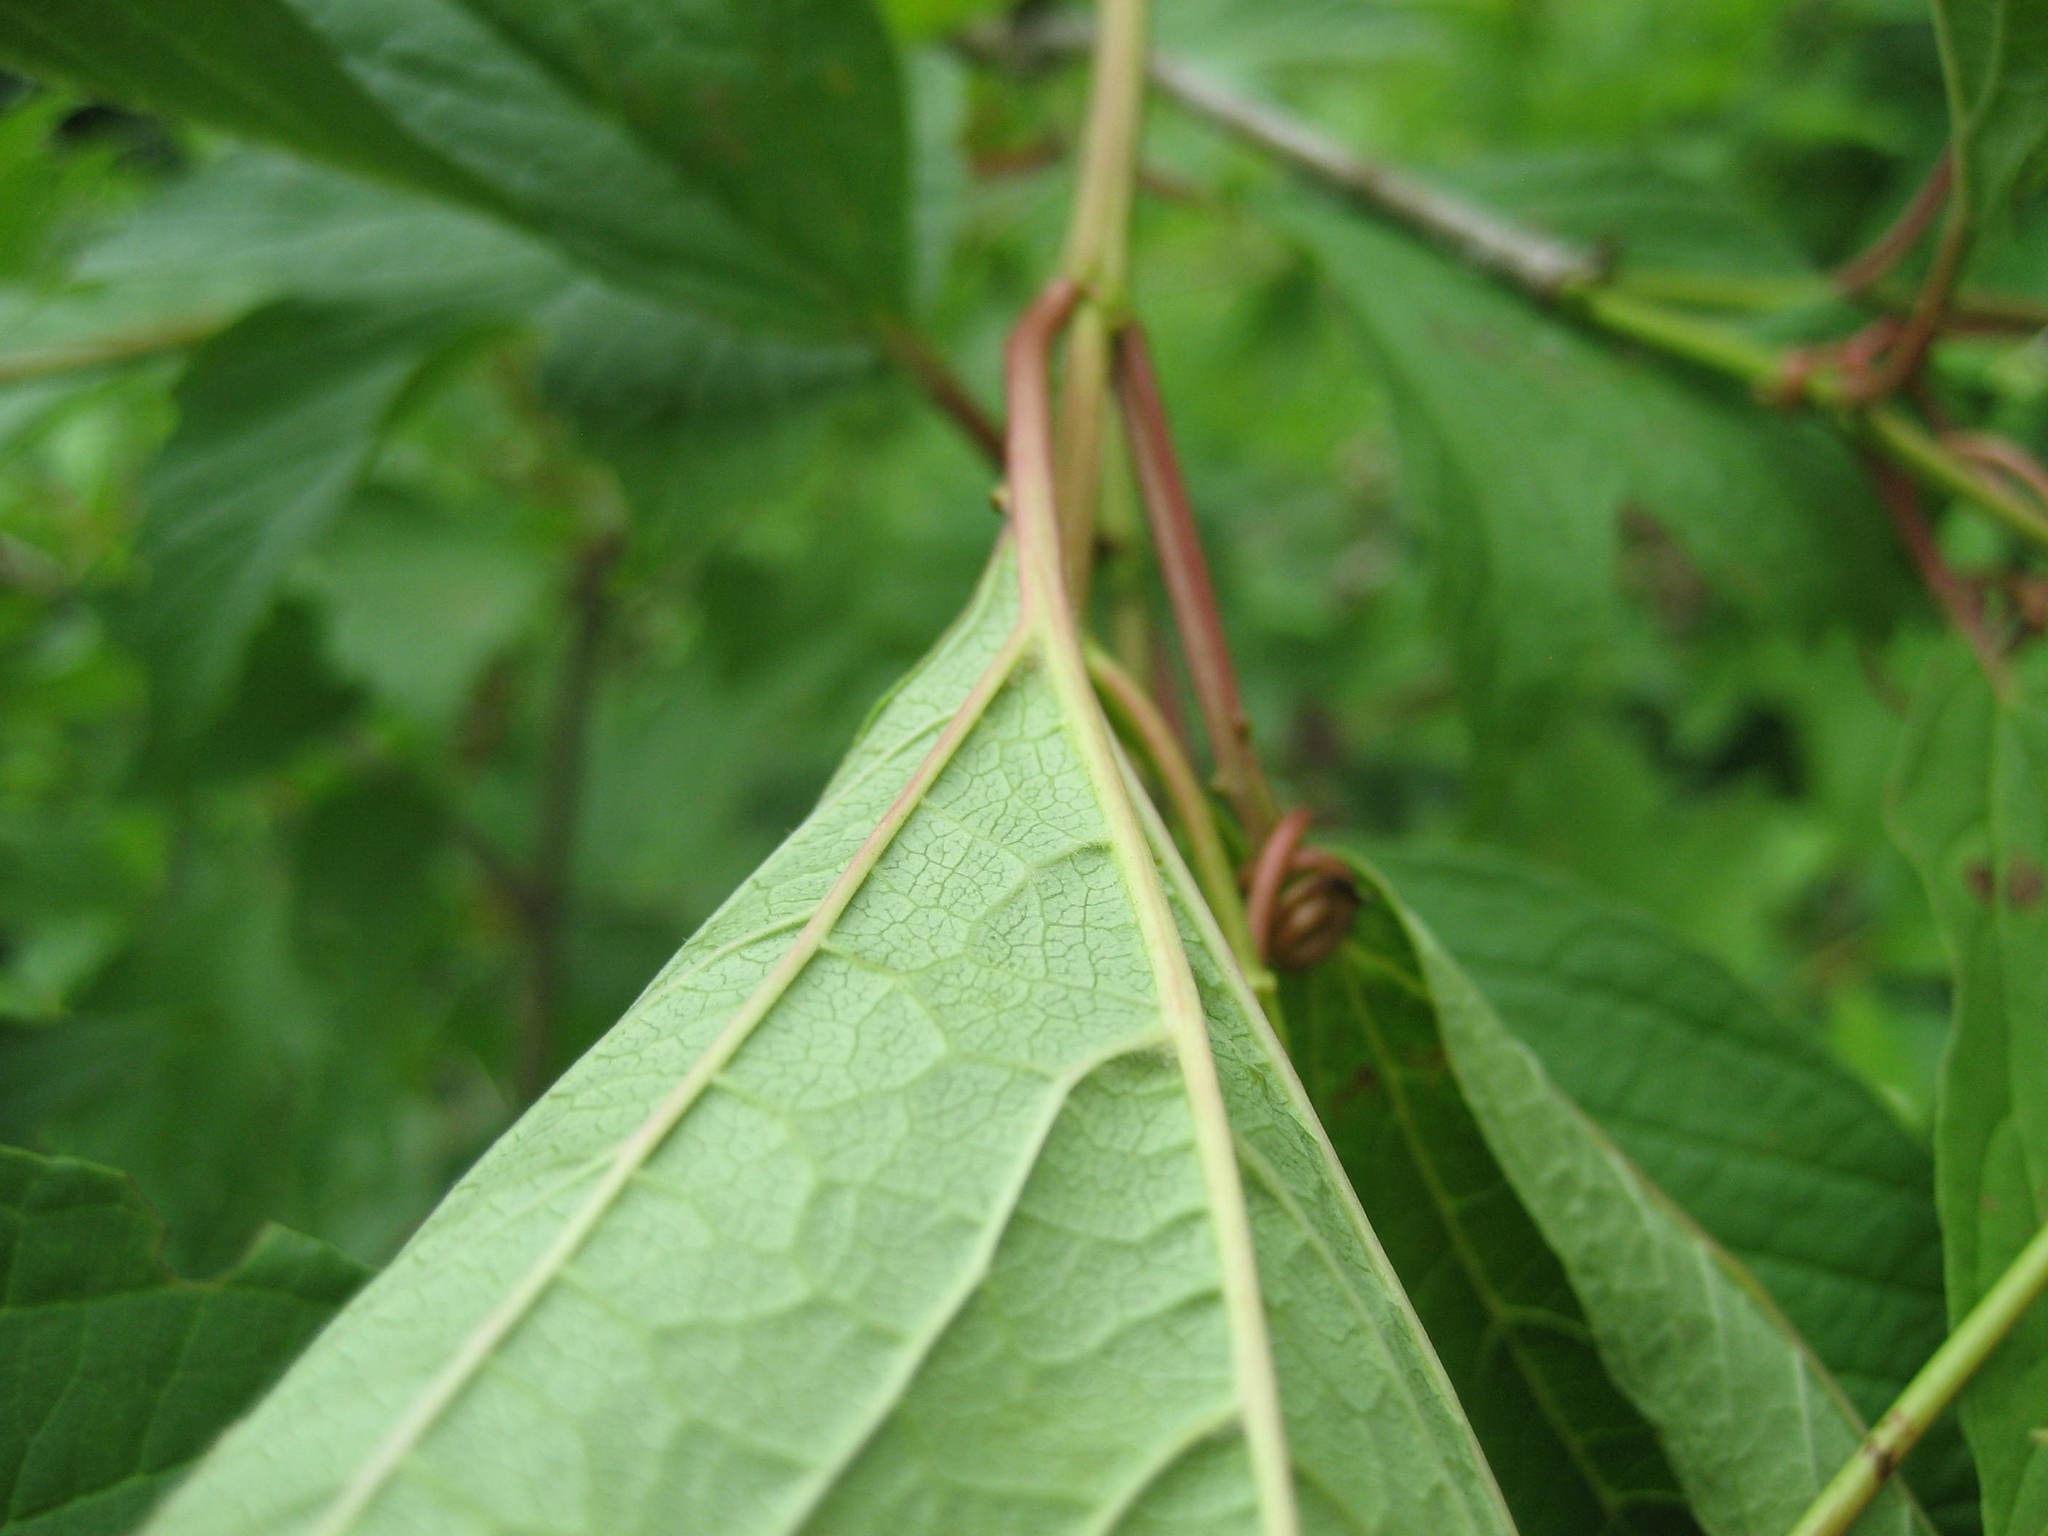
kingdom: Plantae
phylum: Tracheophyta
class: Magnoliopsida
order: Dipsacales
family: Viburnaceae
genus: Viburnum
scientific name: Viburnum trilobum
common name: American cranberrybush
